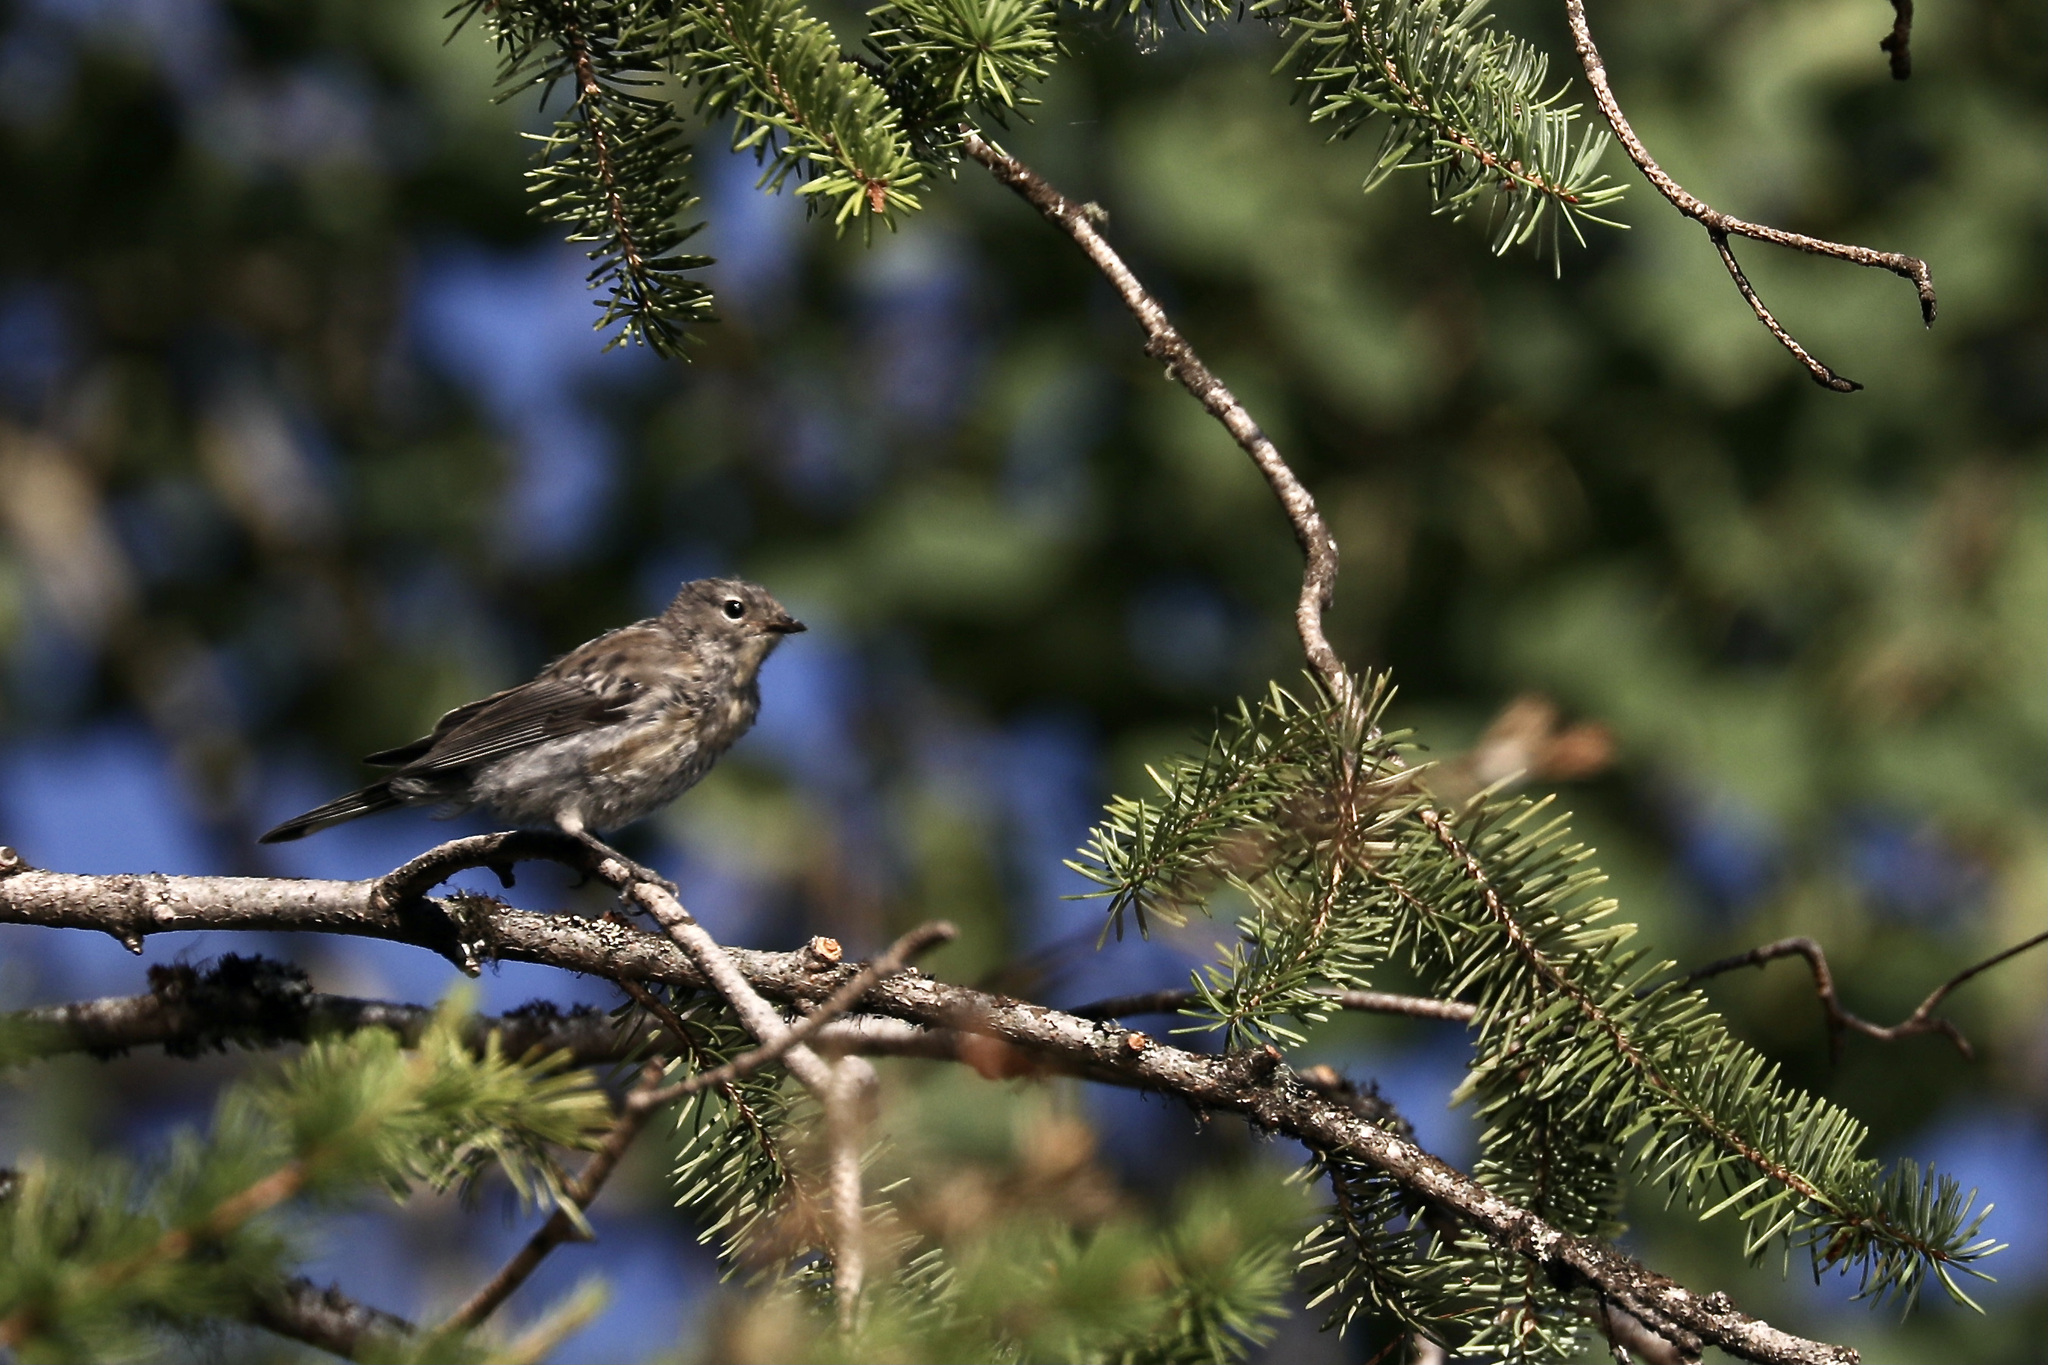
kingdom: Animalia
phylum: Chordata
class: Aves
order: Passeriformes
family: Parulidae
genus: Setophaga
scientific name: Setophaga coronata
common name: Myrtle warbler
